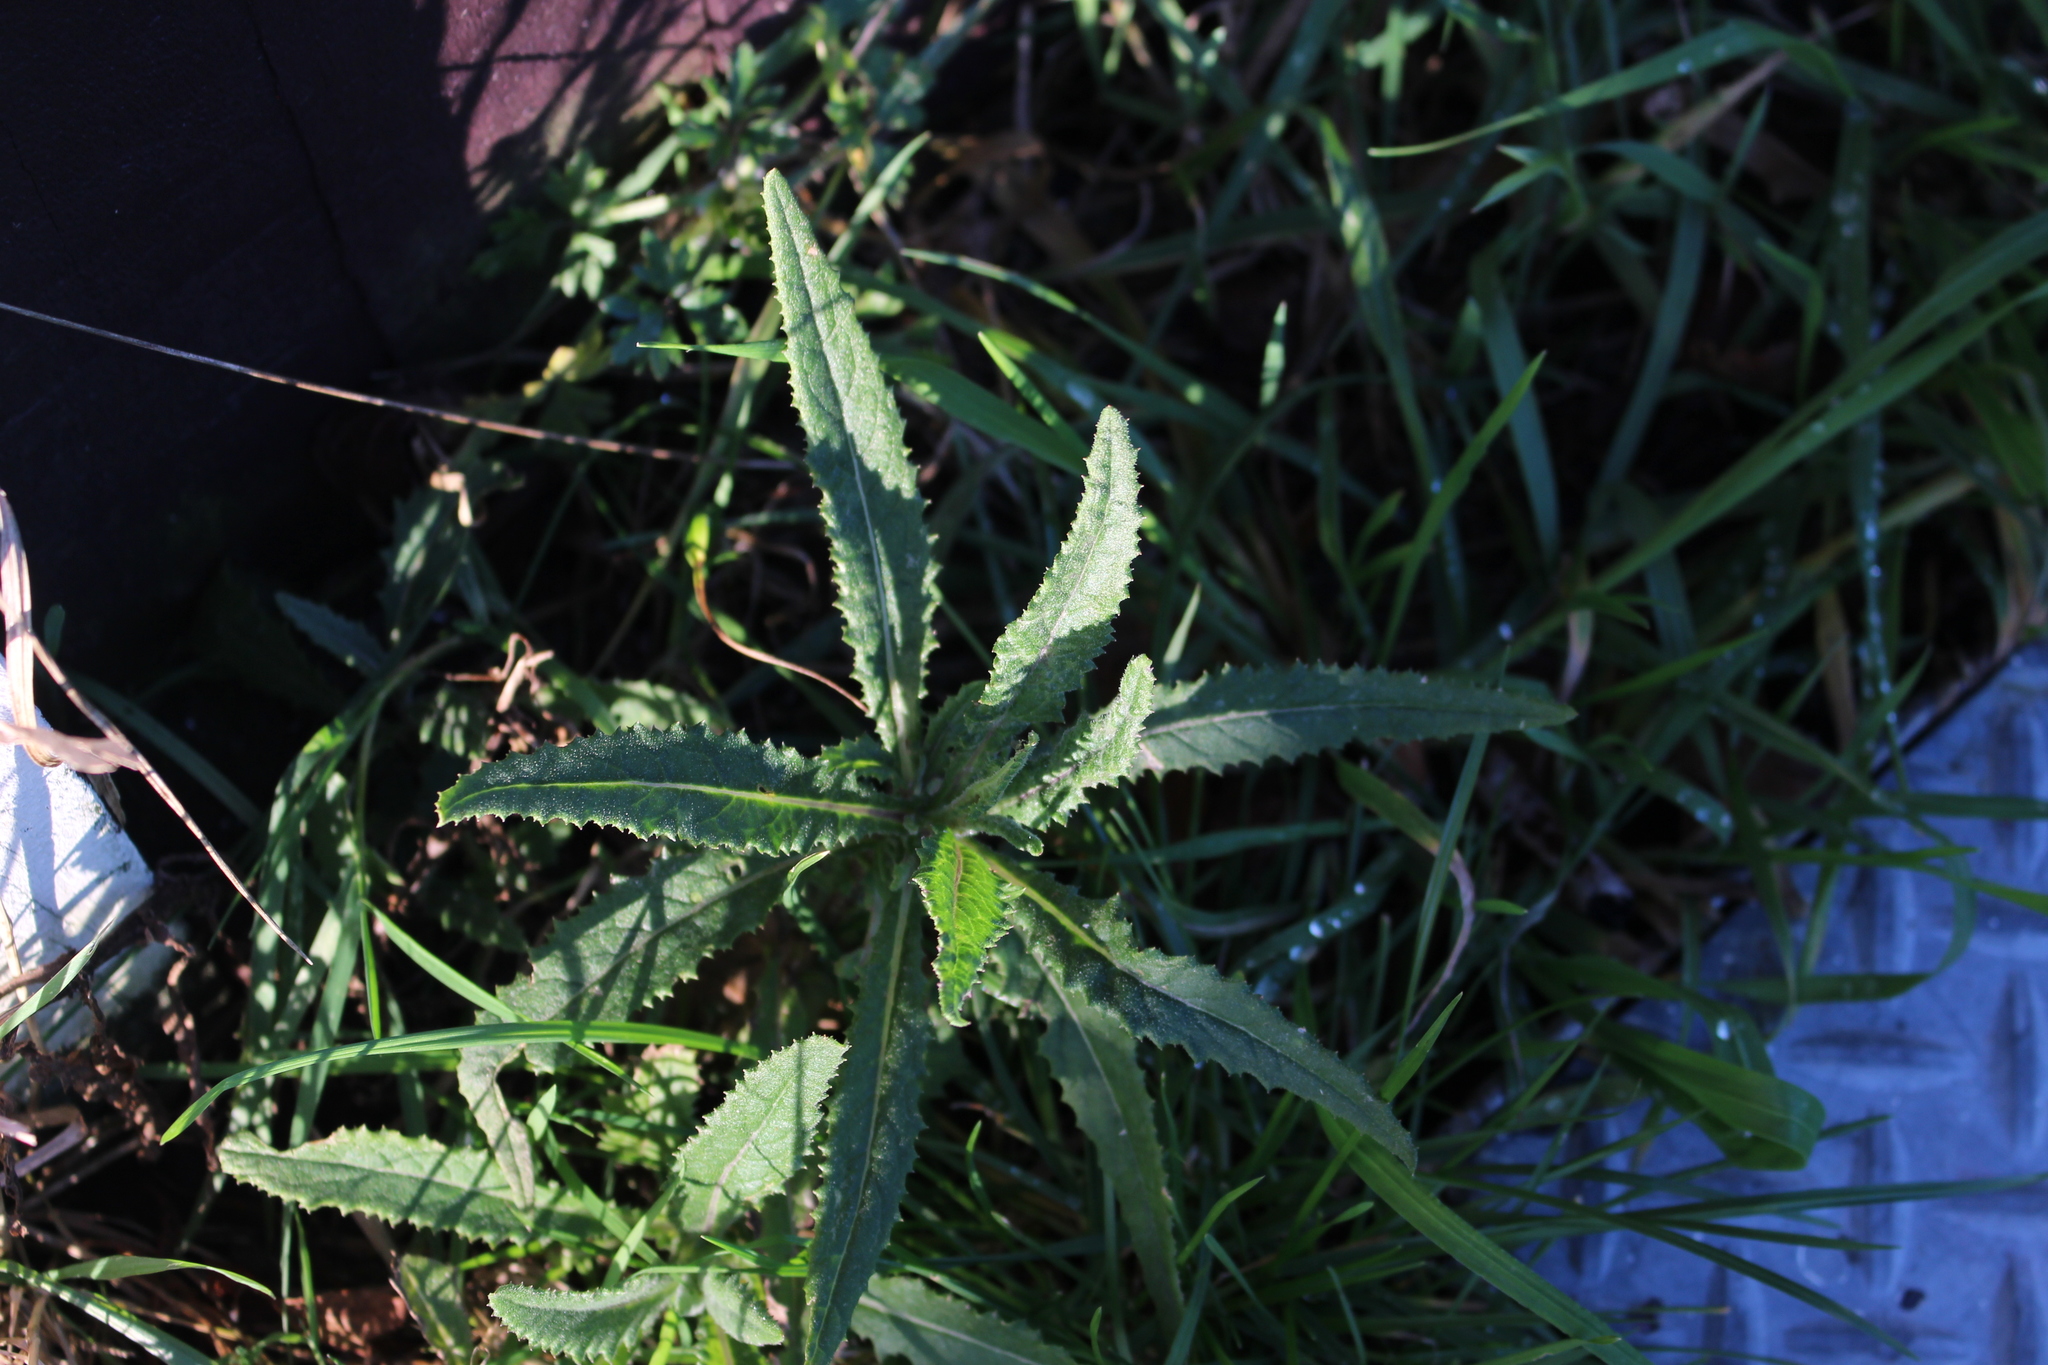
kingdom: Plantae
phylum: Tracheophyta
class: Magnoliopsida
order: Asterales
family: Asteraceae
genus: Senecio
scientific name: Senecio minimus
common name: Toothed fireweed
